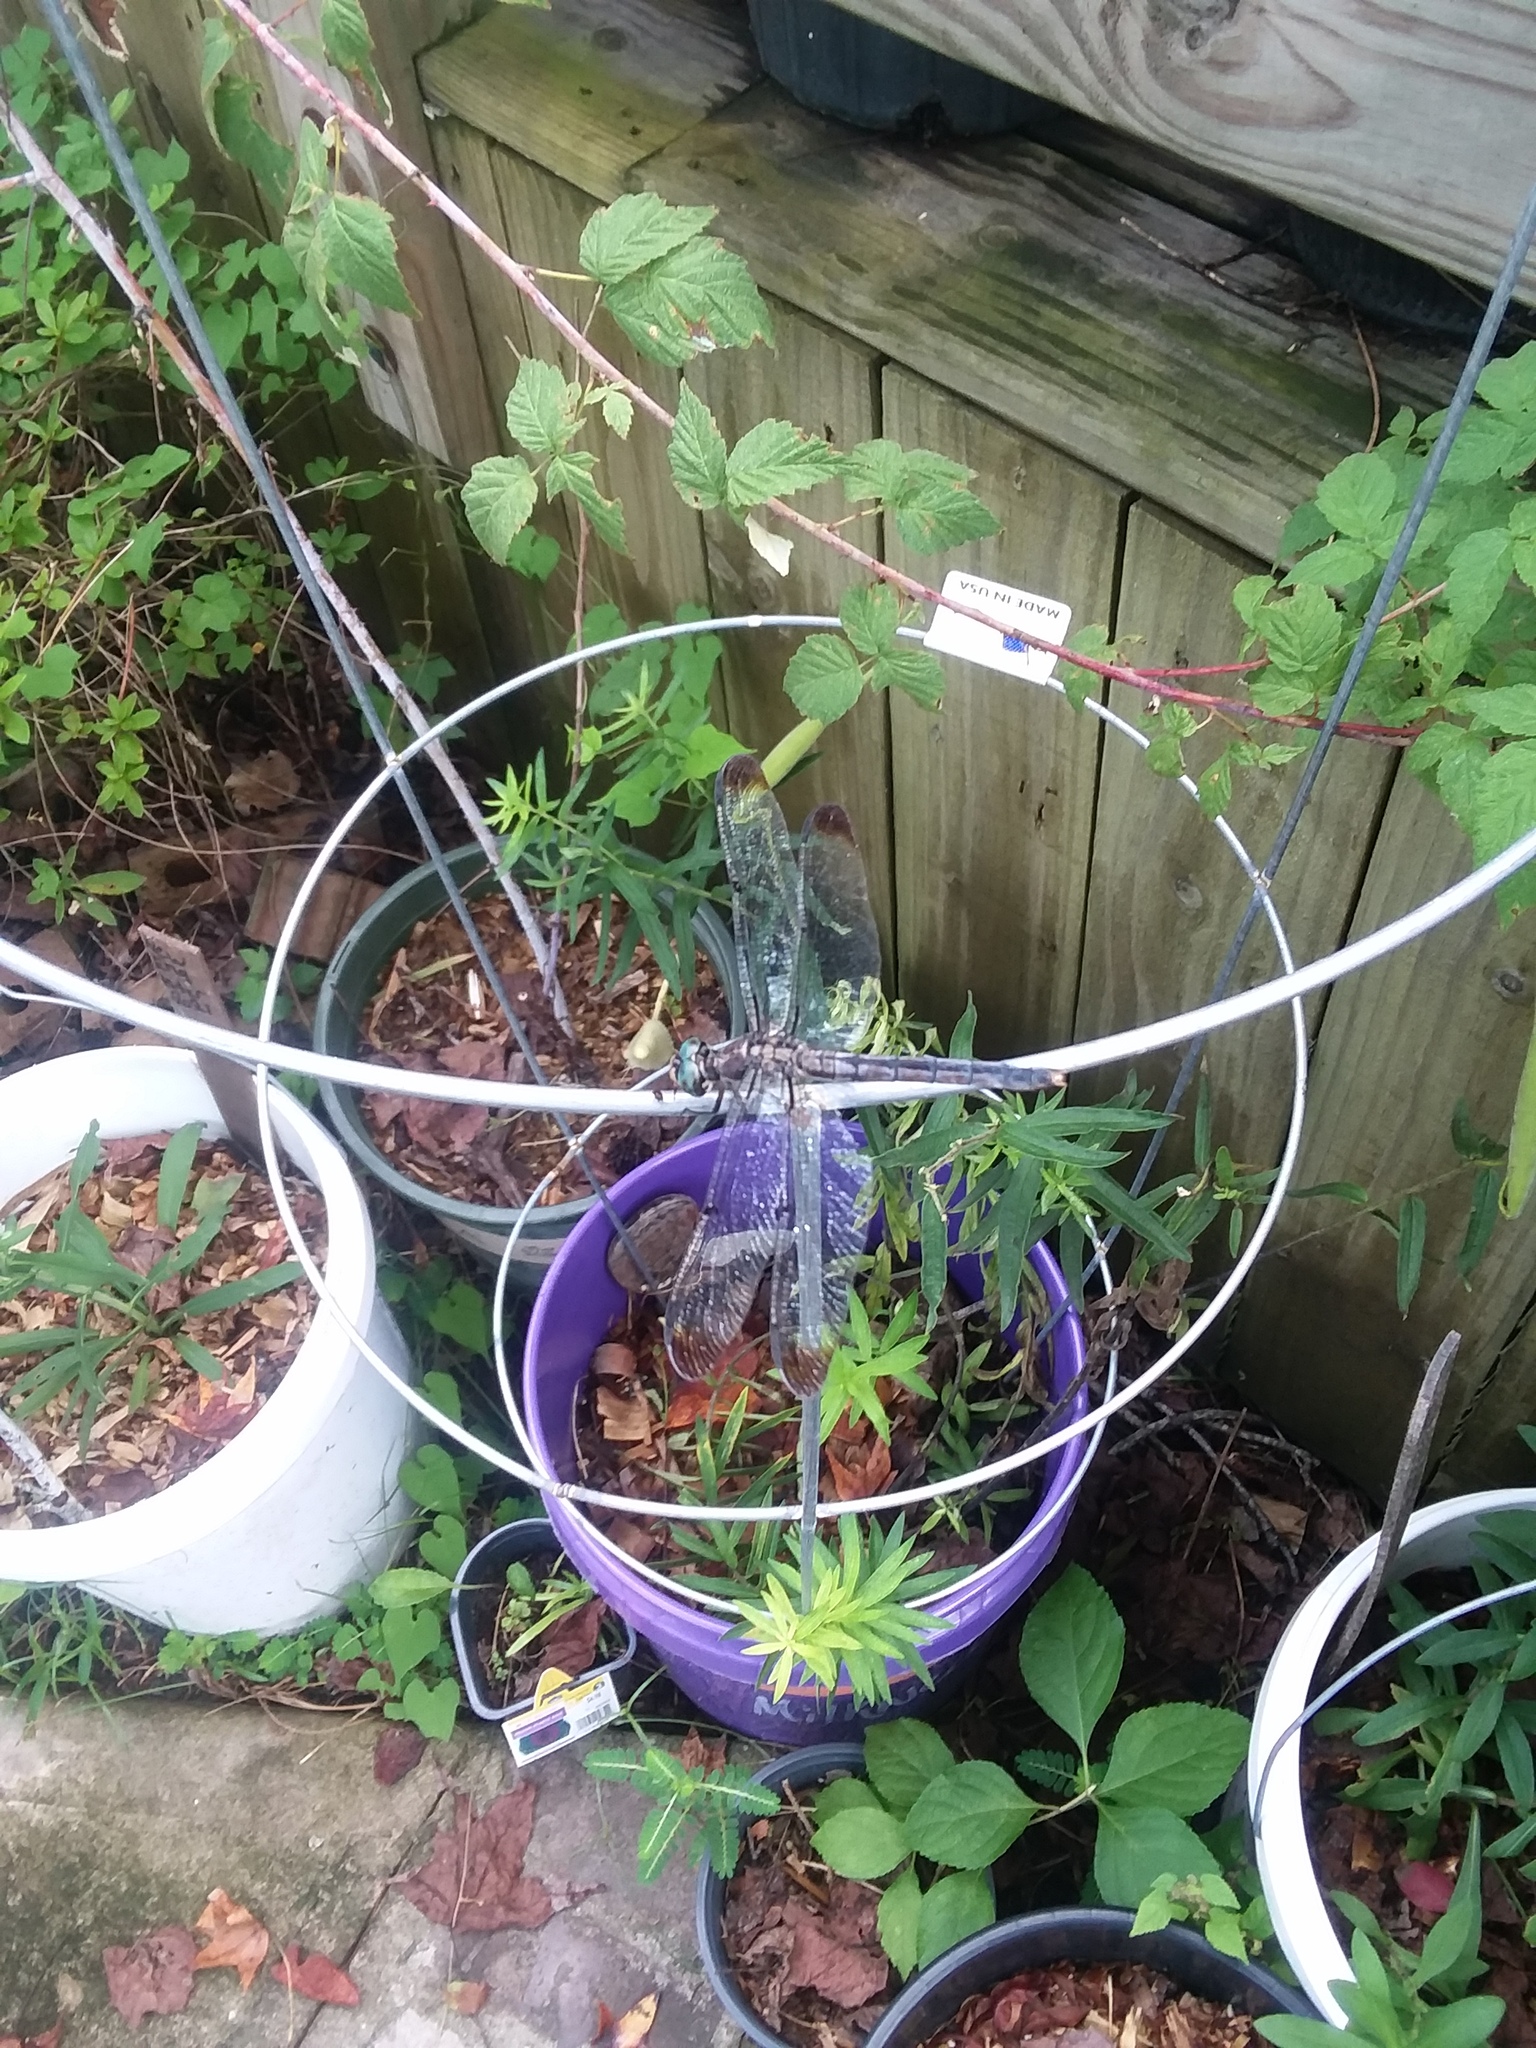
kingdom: Animalia
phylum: Arthropoda
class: Insecta
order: Odonata
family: Libellulidae
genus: Libellula
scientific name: Libellula vibrans
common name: Great blue skimmer
